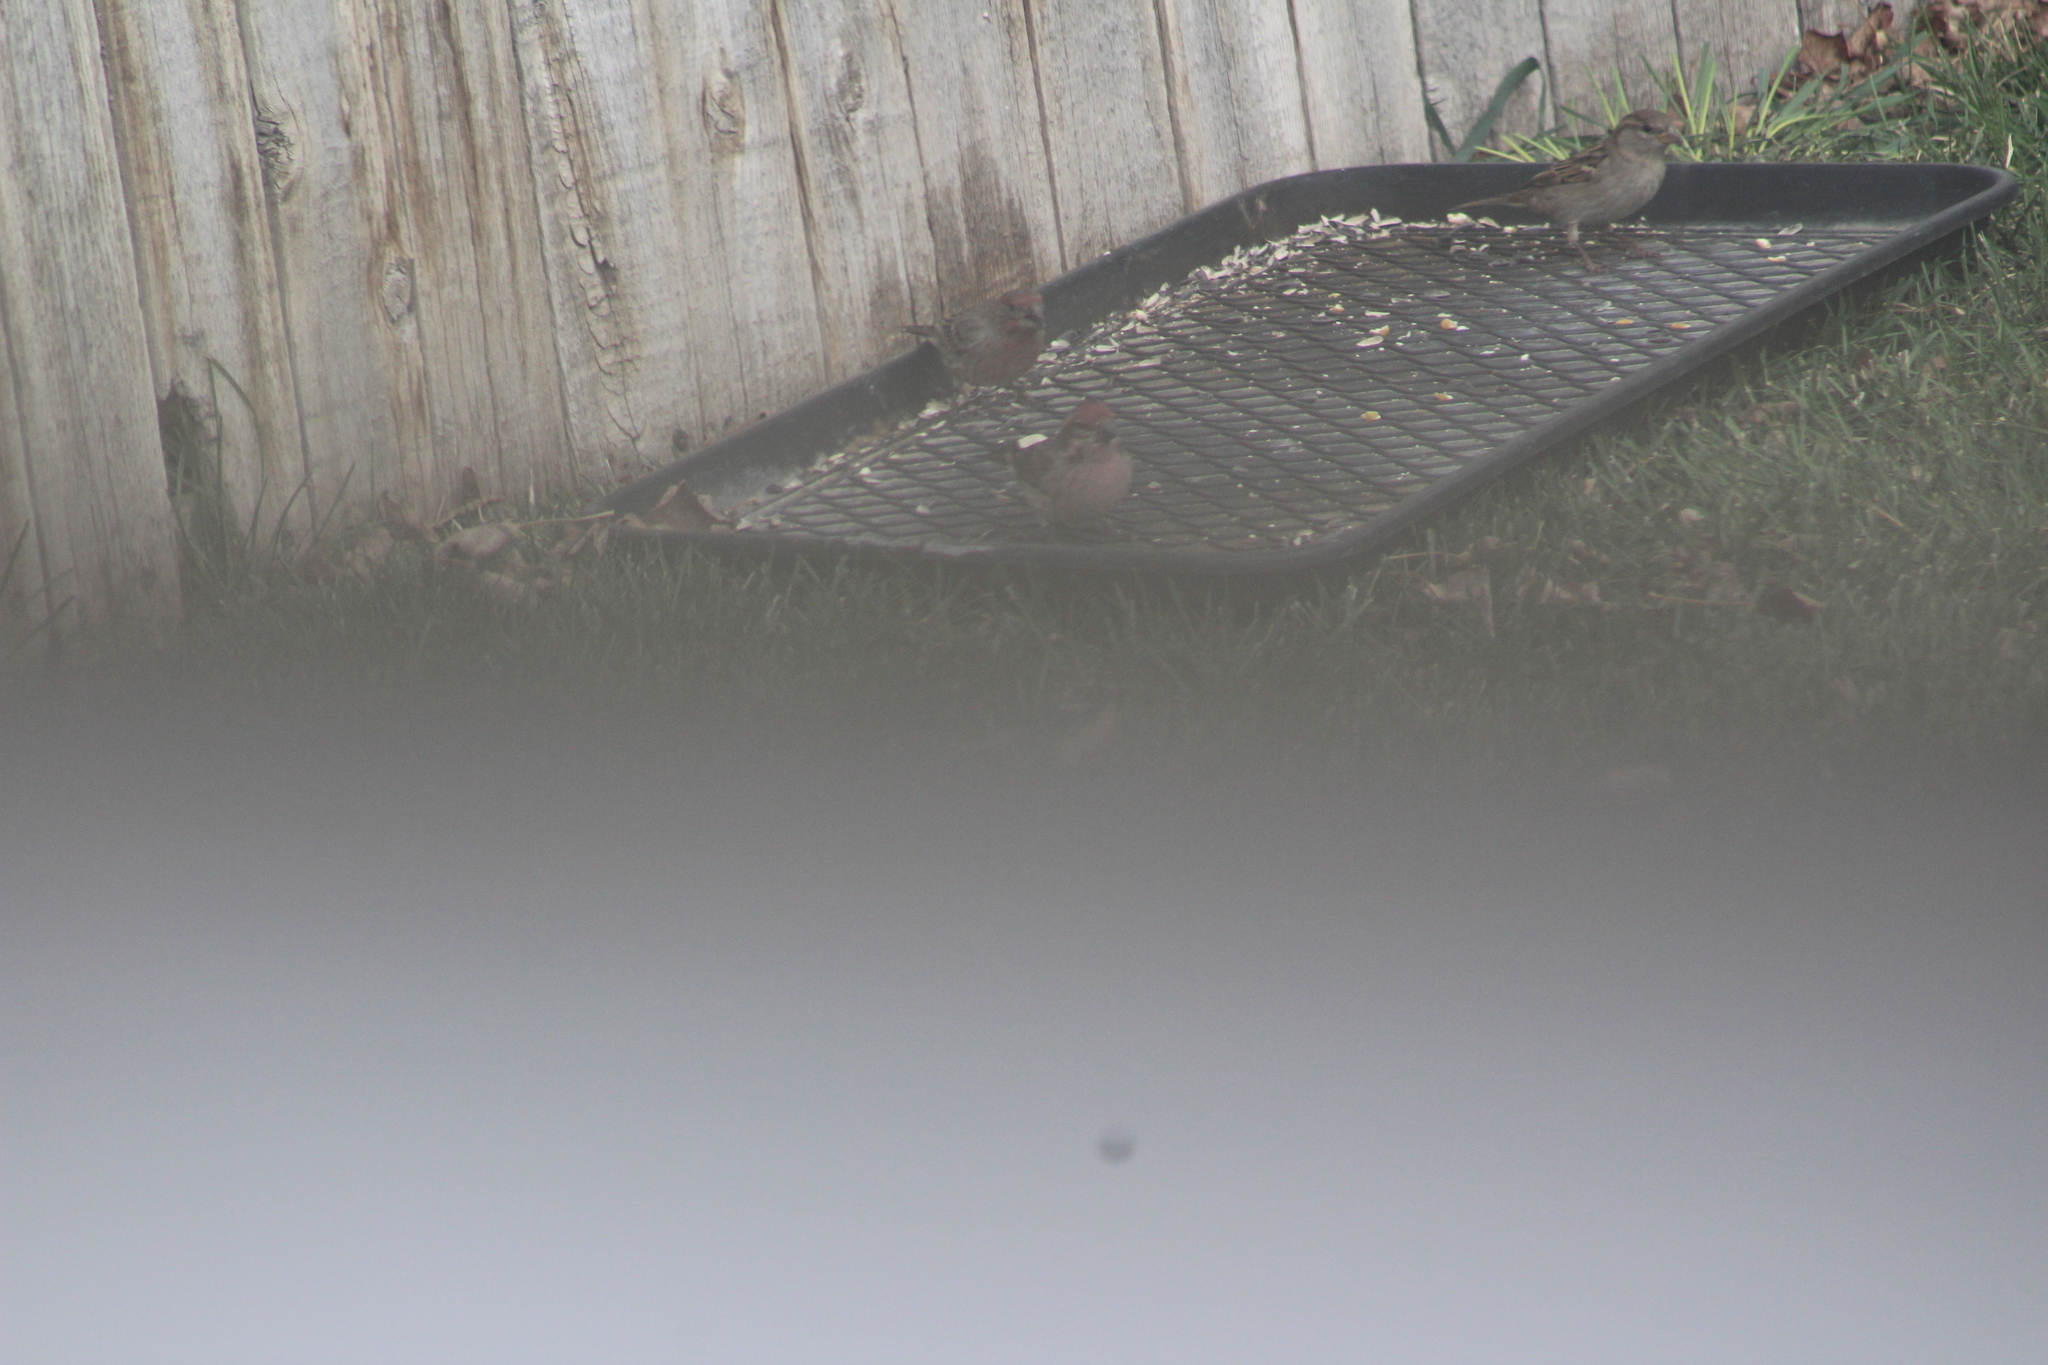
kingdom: Animalia
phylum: Chordata
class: Aves
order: Passeriformes
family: Fringillidae
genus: Haemorhous
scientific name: Haemorhous cassinii
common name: Cassin's finch
